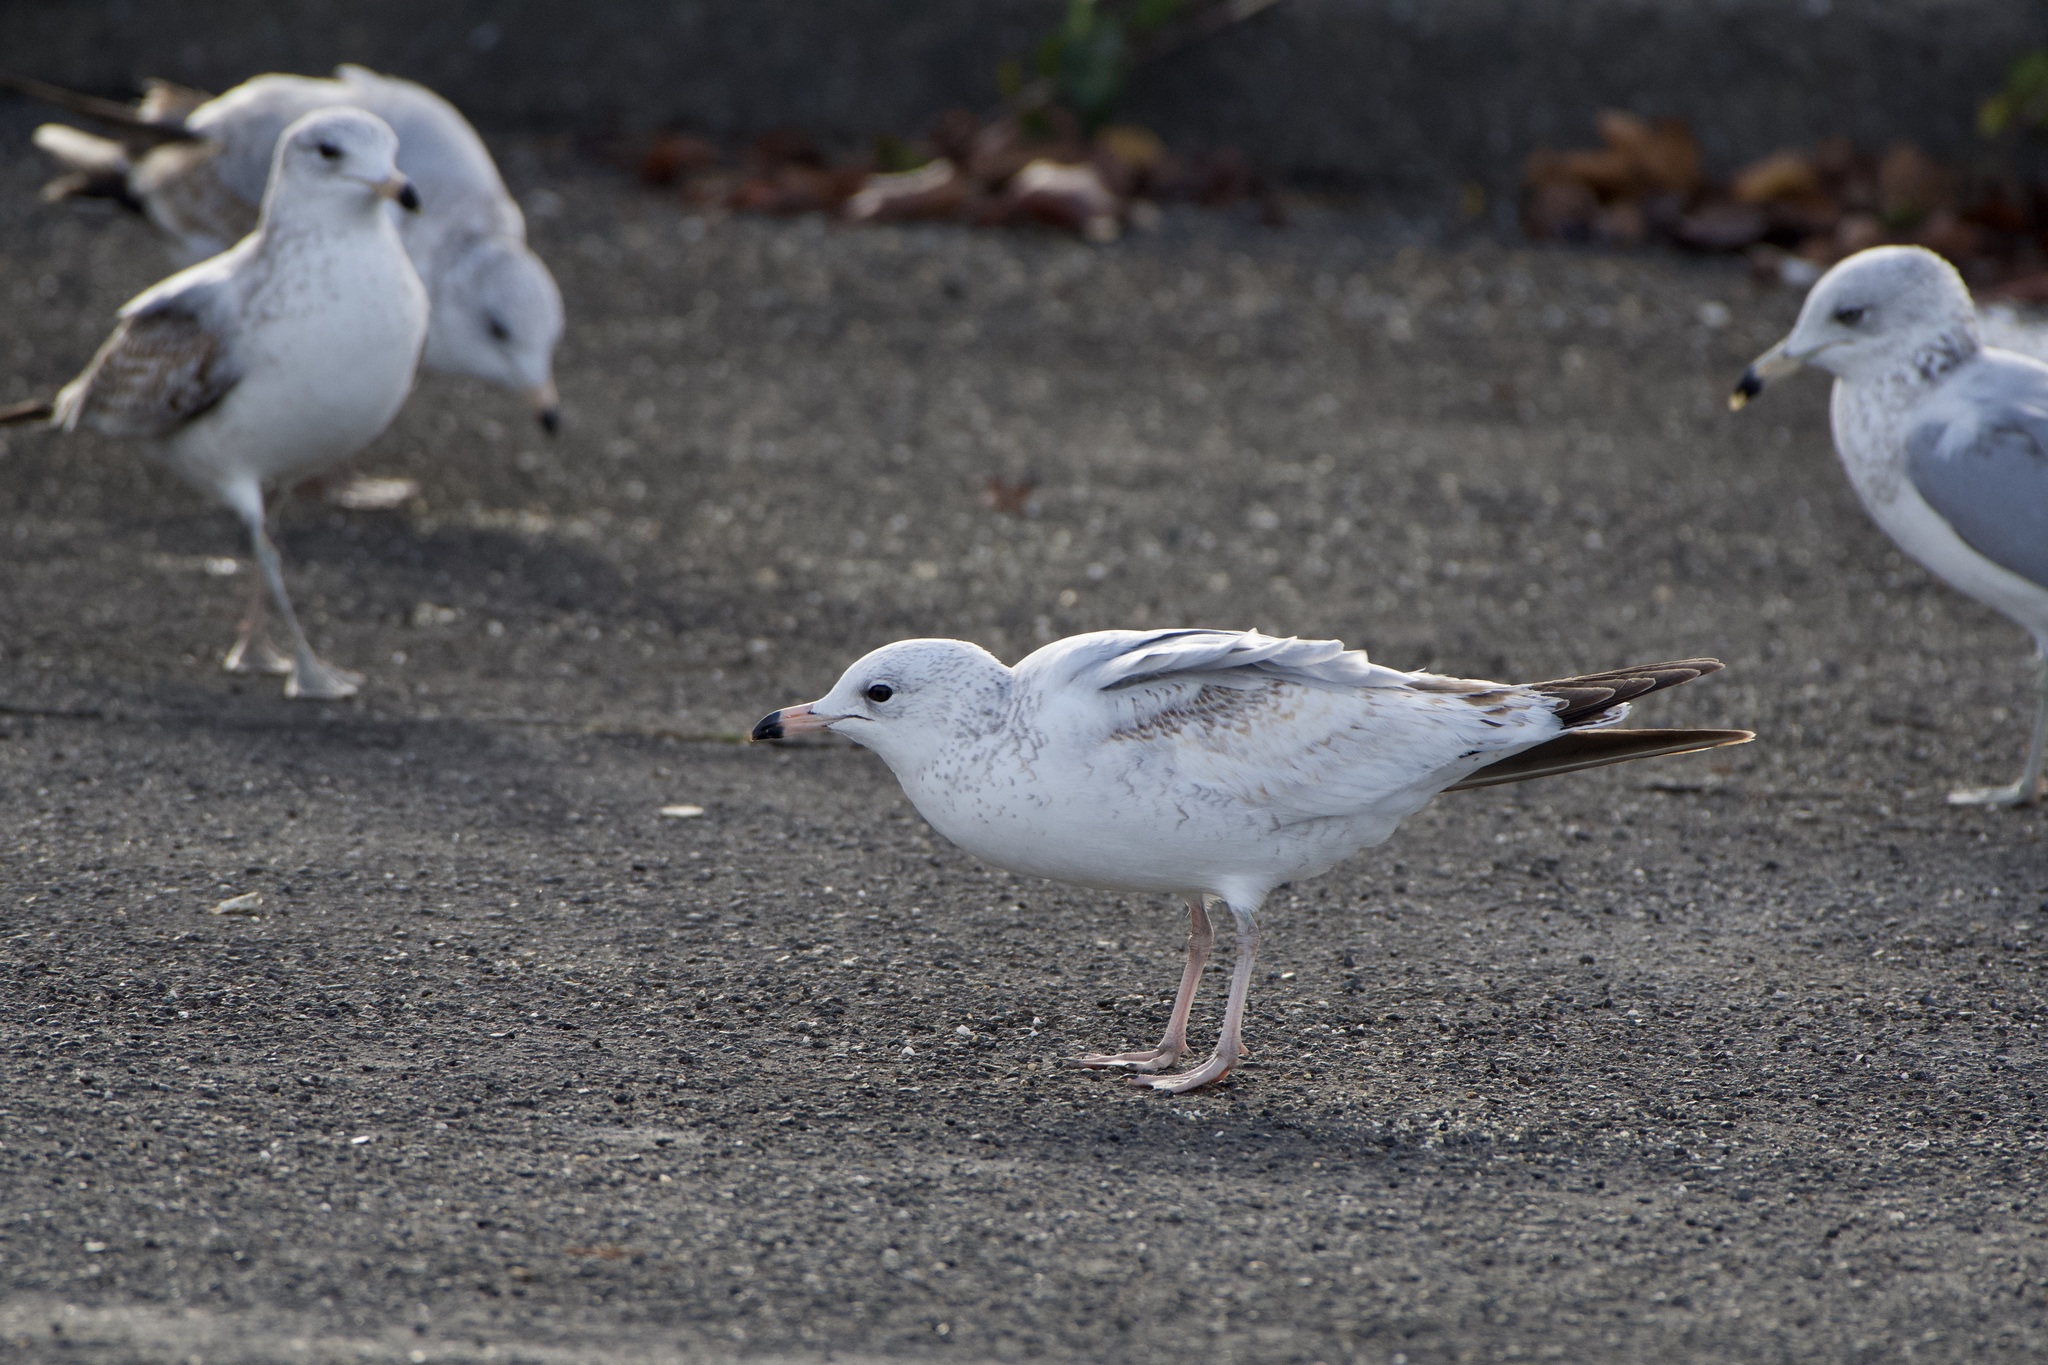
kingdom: Animalia
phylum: Chordata
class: Aves
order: Charadriiformes
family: Laridae
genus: Larus
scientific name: Larus delawarensis
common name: Ring-billed gull
